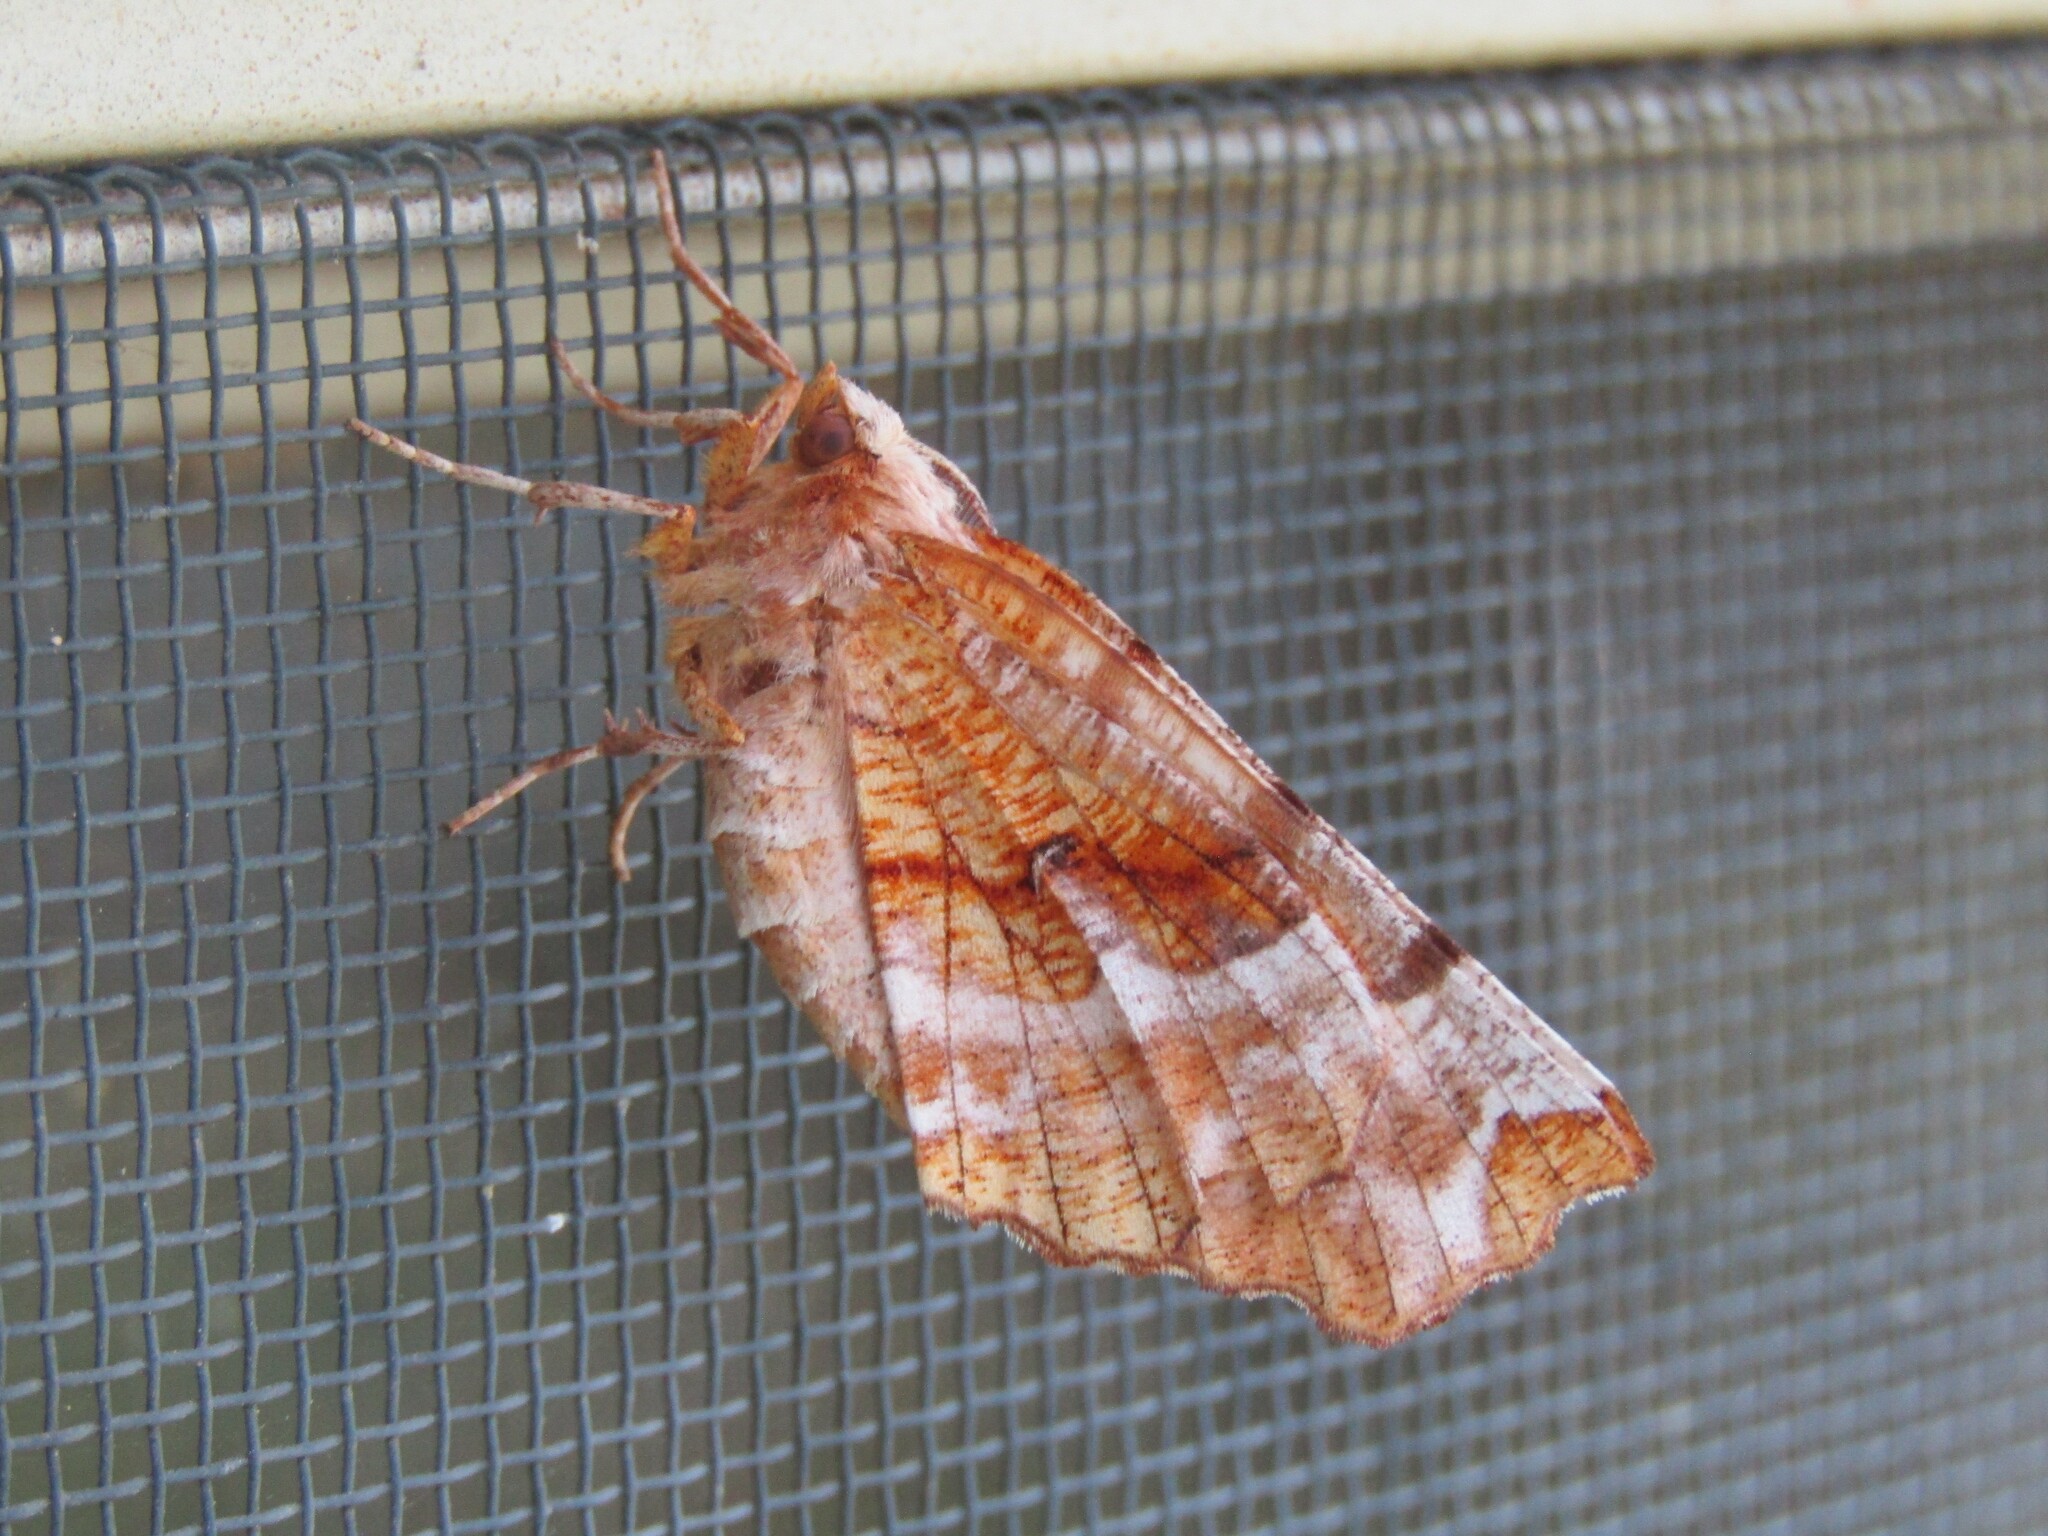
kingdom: Animalia
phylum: Arthropoda
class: Insecta
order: Lepidoptera
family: Geometridae
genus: Selenia
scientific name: Selenia kentaria
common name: Kent's geometer
